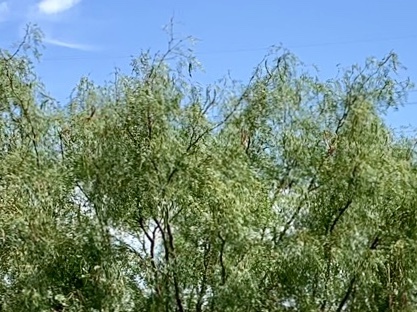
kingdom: Plantae
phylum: Tracheophyta
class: Magnoliopsida
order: Fabales
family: Fabaceae
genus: Prosopis
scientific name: Prosopis glandulosa
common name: Honey mesquite
